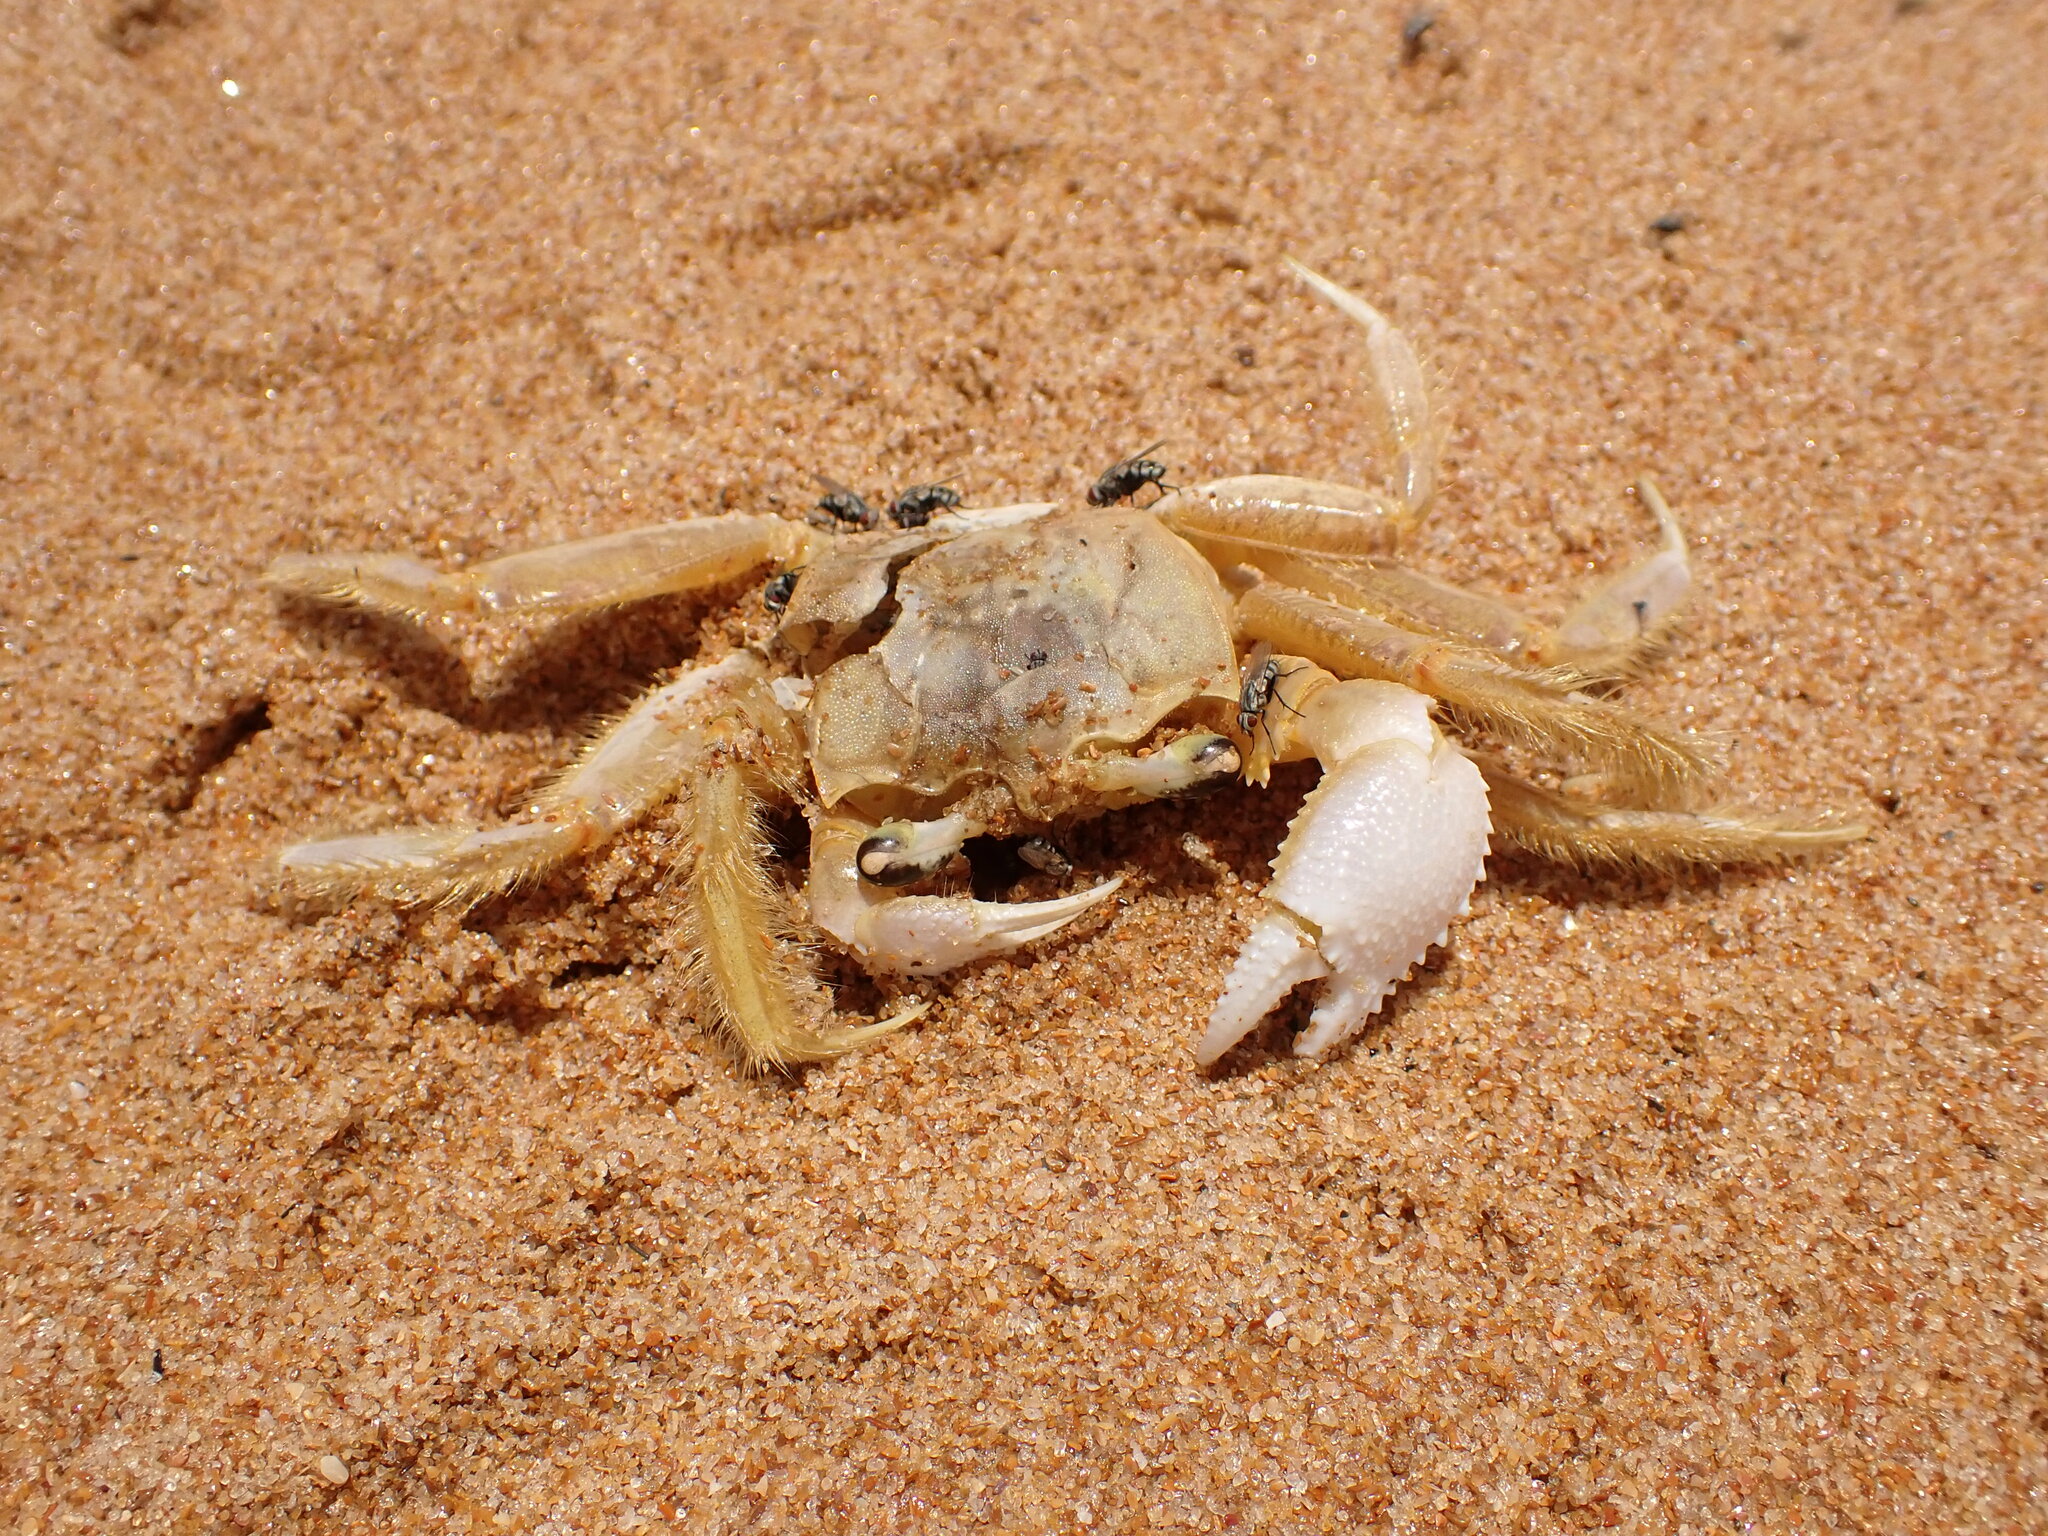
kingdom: Animalia
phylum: Arthropoda
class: Malacostraca
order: Decapoda
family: Ocypodidae
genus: Ocypode
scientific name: Ocypode quadrata
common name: Ghost crab
